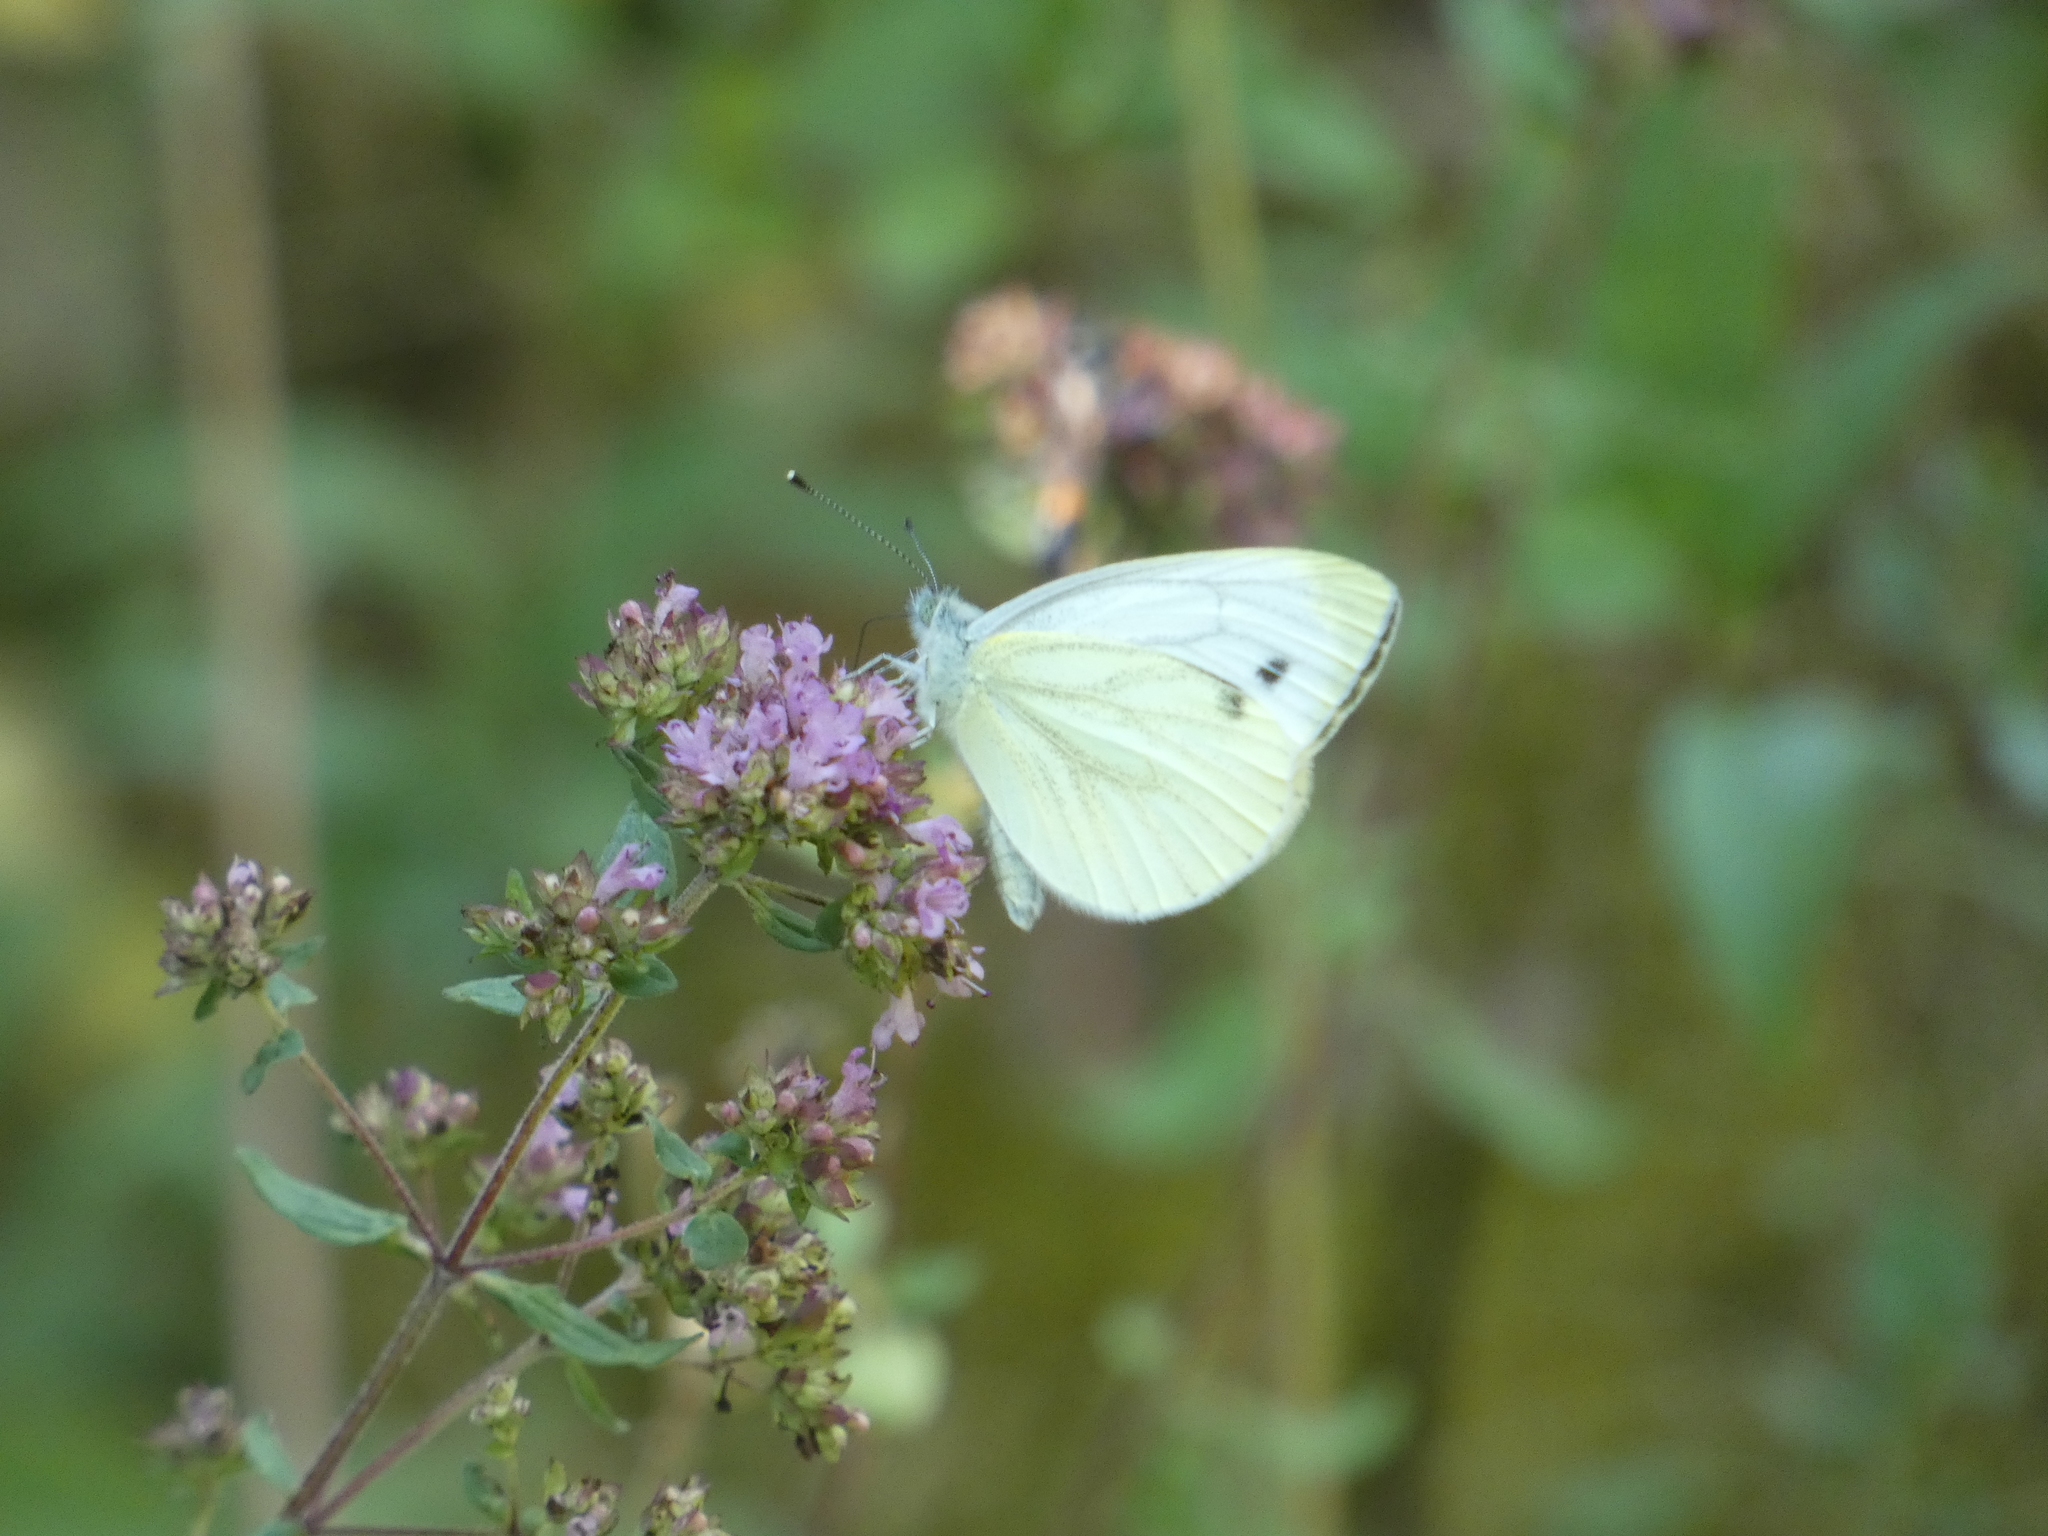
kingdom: Animalia
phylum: Arthropoda
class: Insecta
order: Lepidoptera
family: Pieridae
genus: Pieris
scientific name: Pieris napi
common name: Green-veined white
